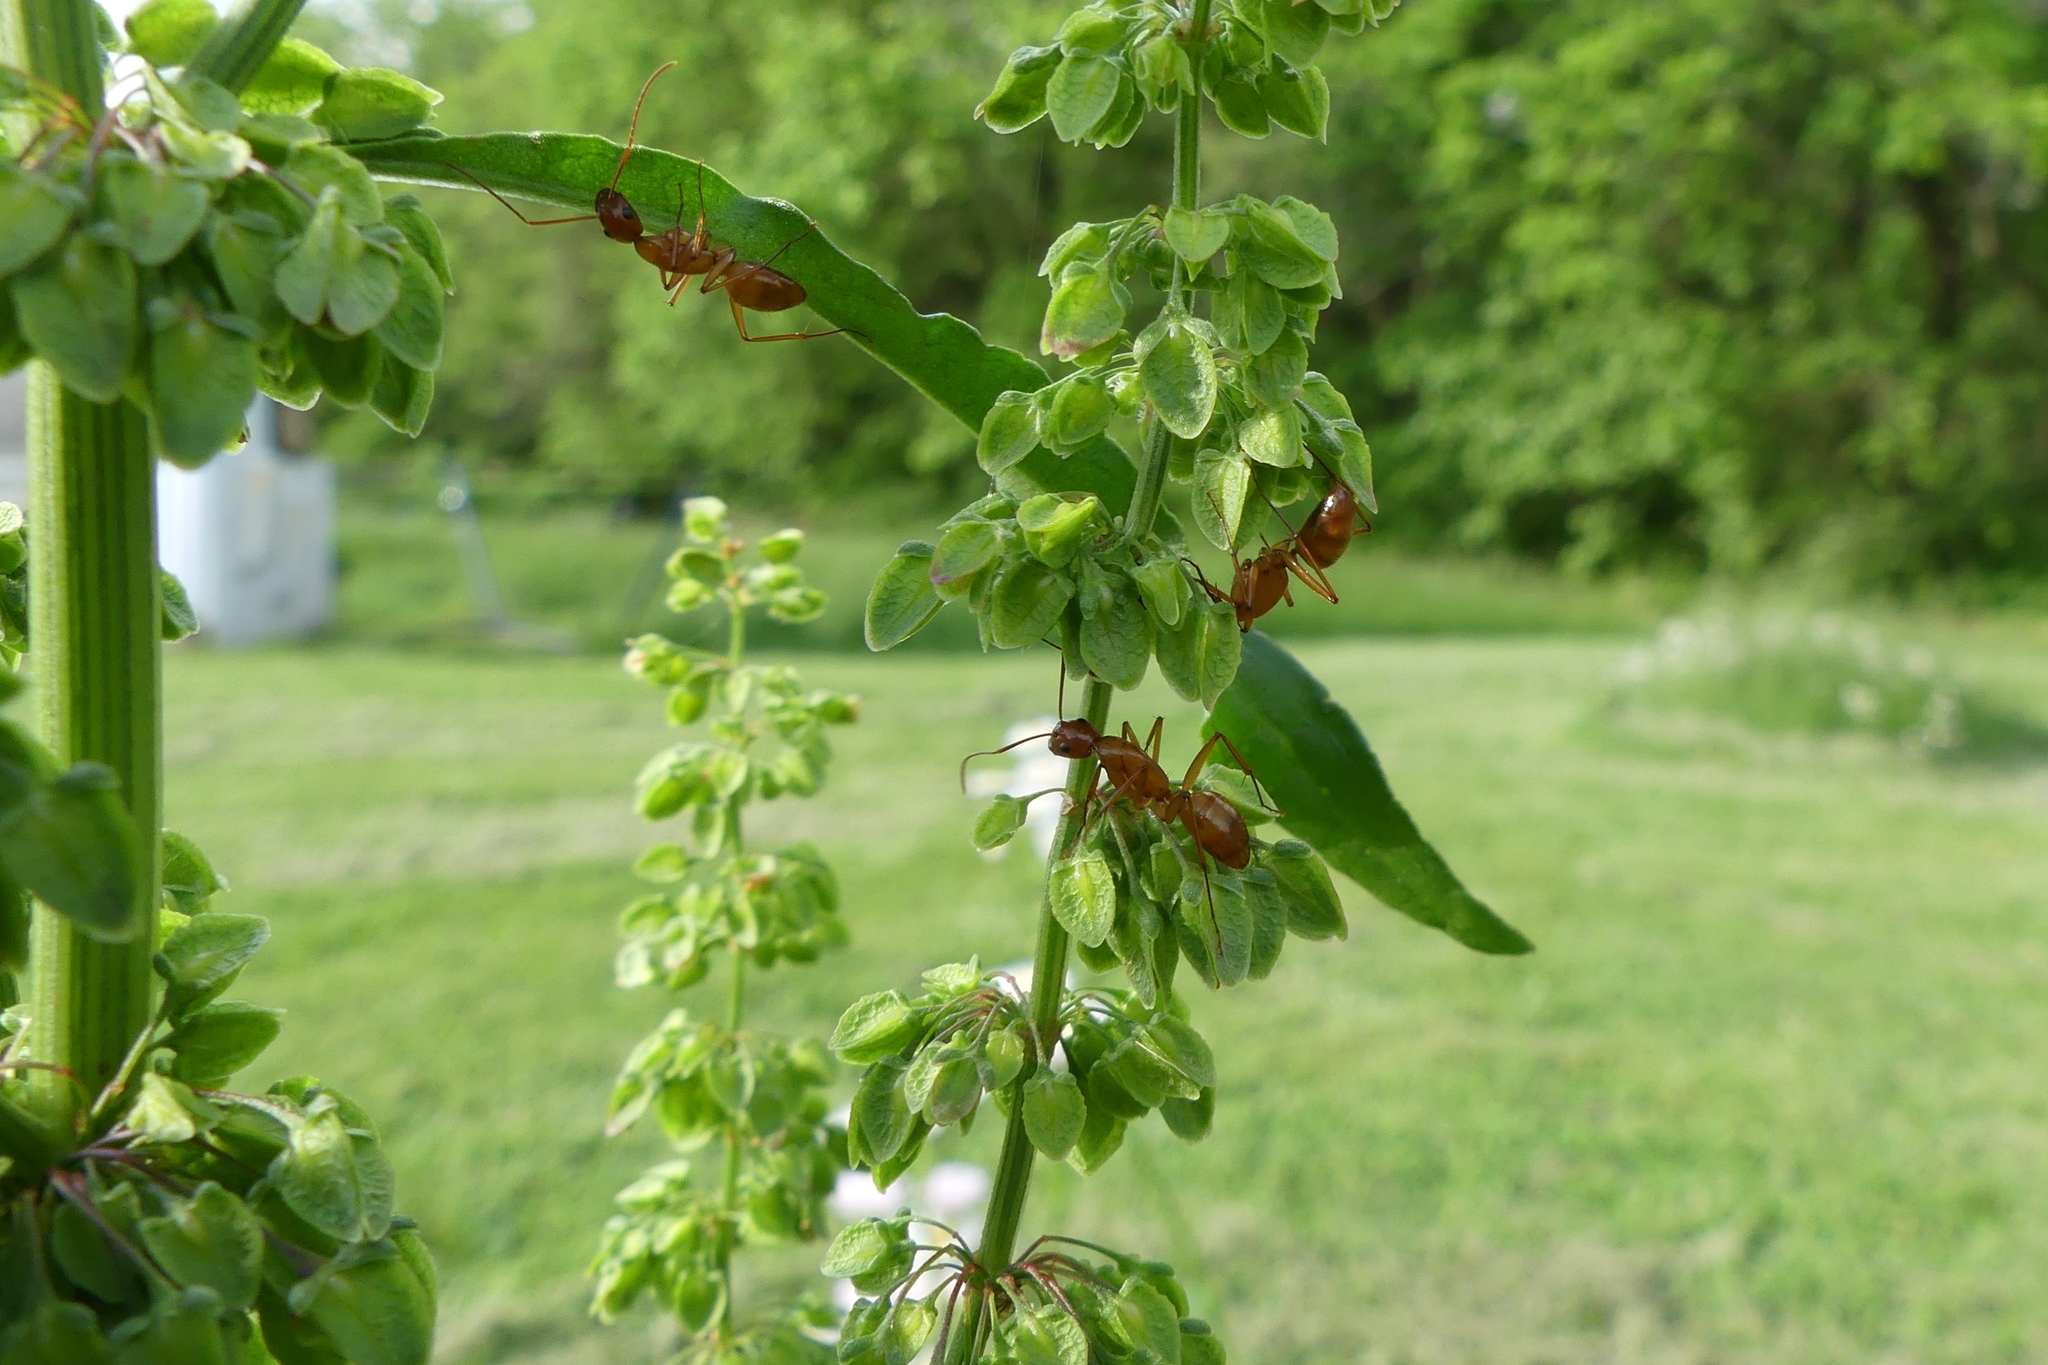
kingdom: Animalia
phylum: Arthropoda
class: Insecta
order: Hymenoptera
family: Formicidae
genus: Camponotus
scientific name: Camponotus castaneus
